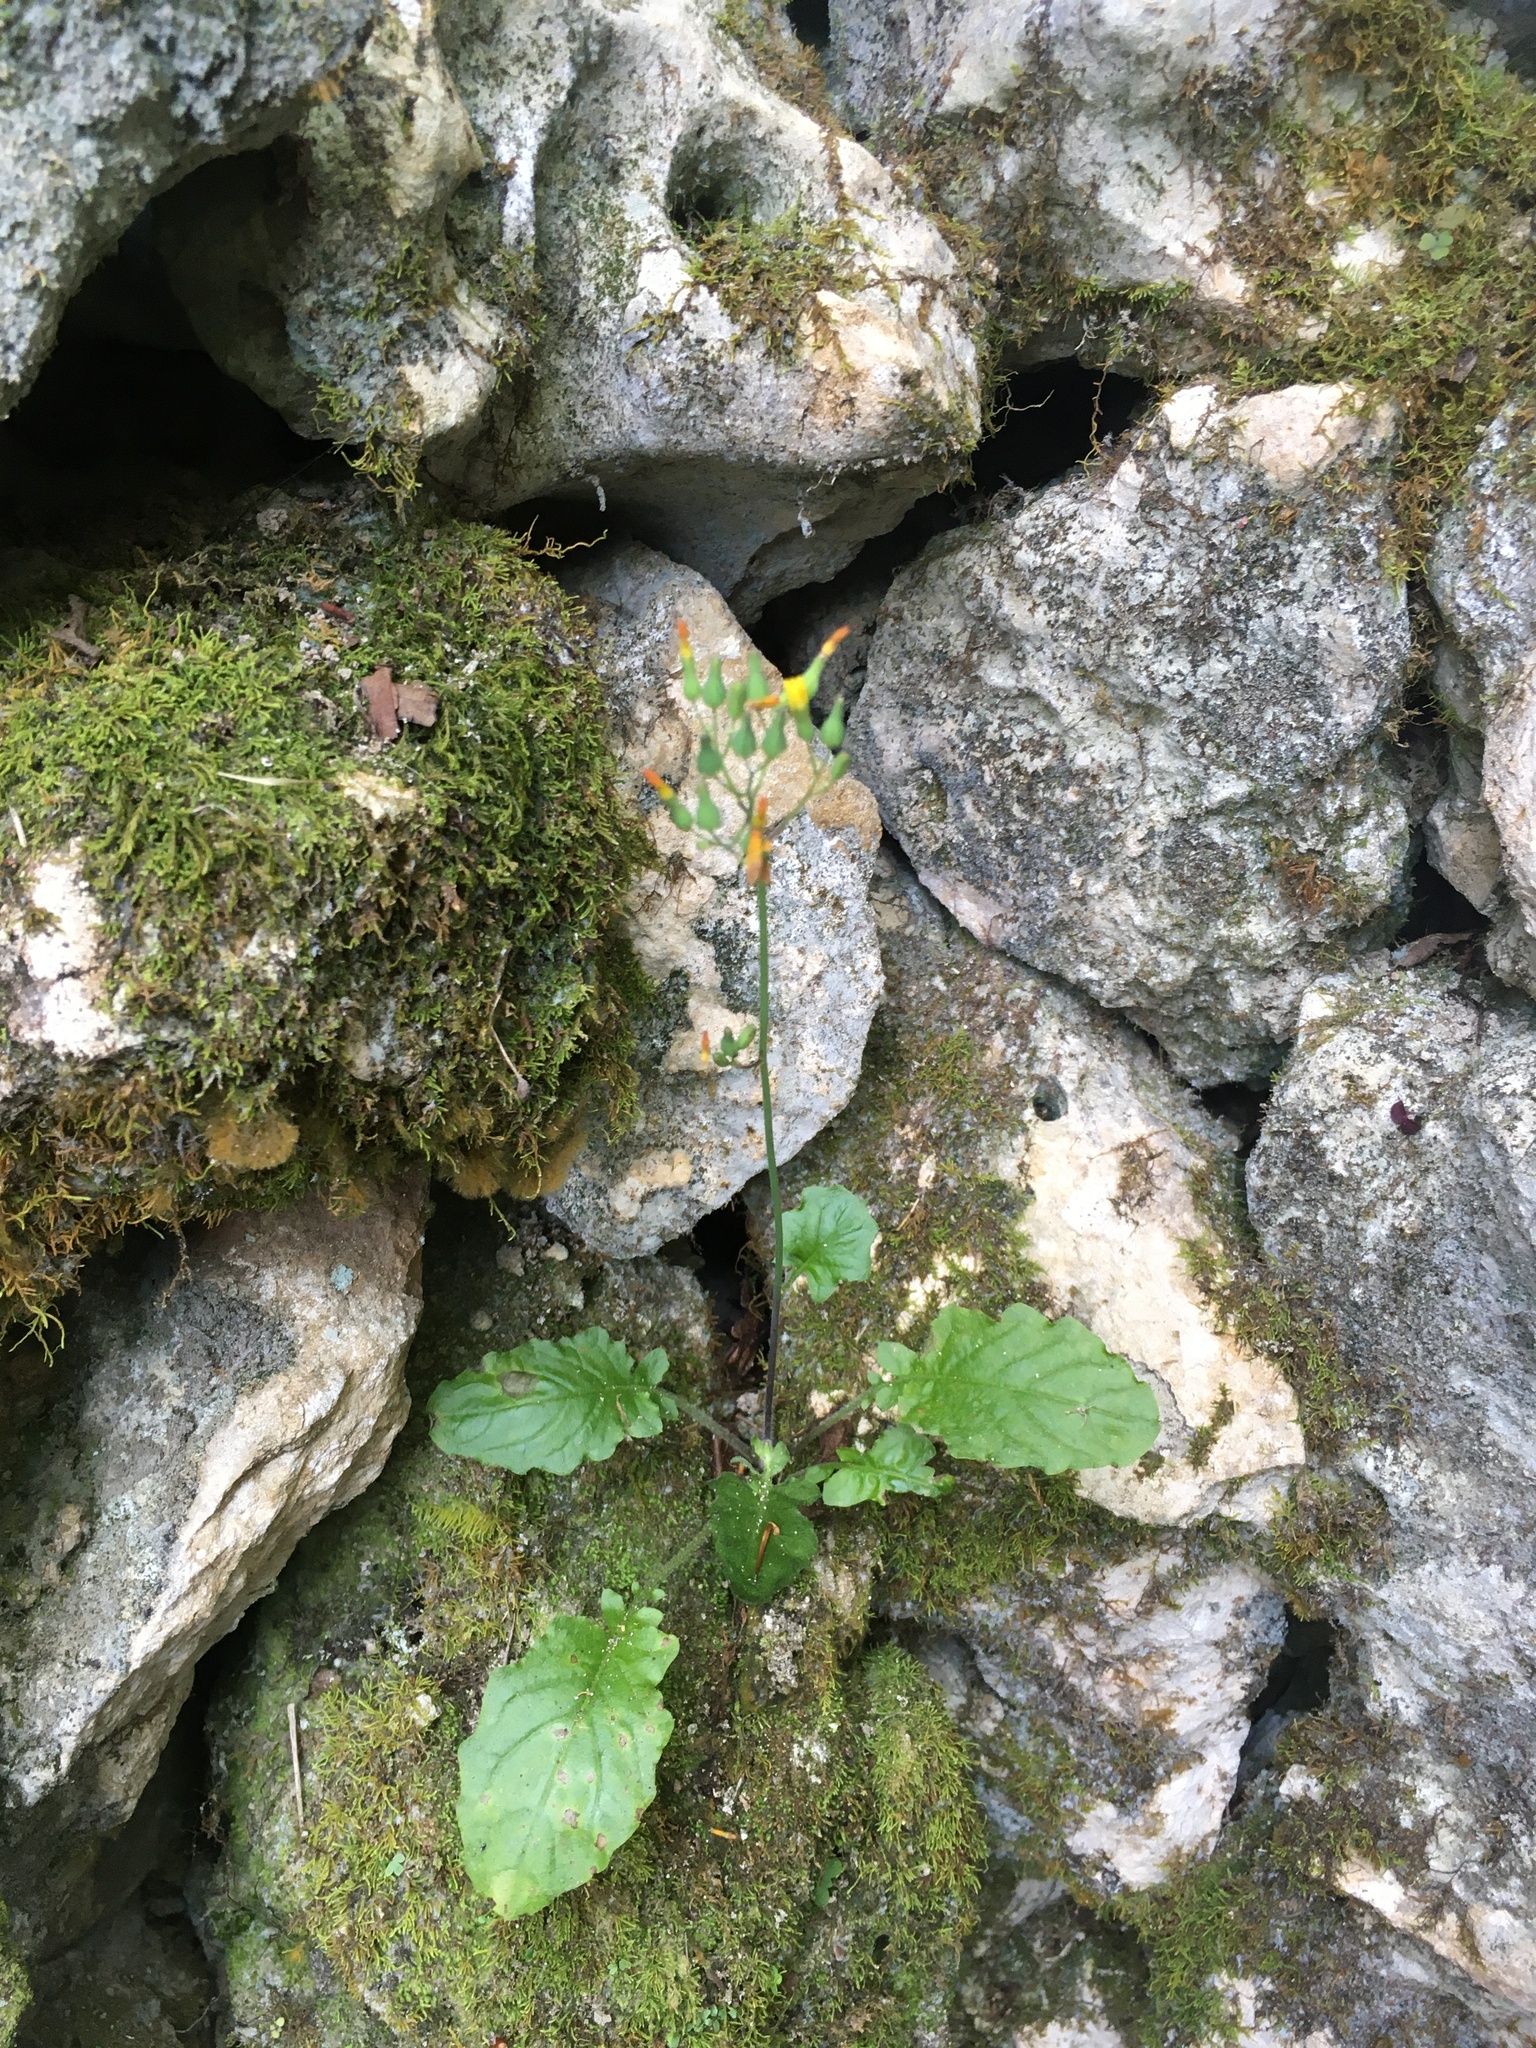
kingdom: Plantae
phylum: Tracheophyta
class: Magnoliopsida
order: Asterales
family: Asteraceae
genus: Youngia
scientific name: Youngia japonica
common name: Oriental false hawksbeard
